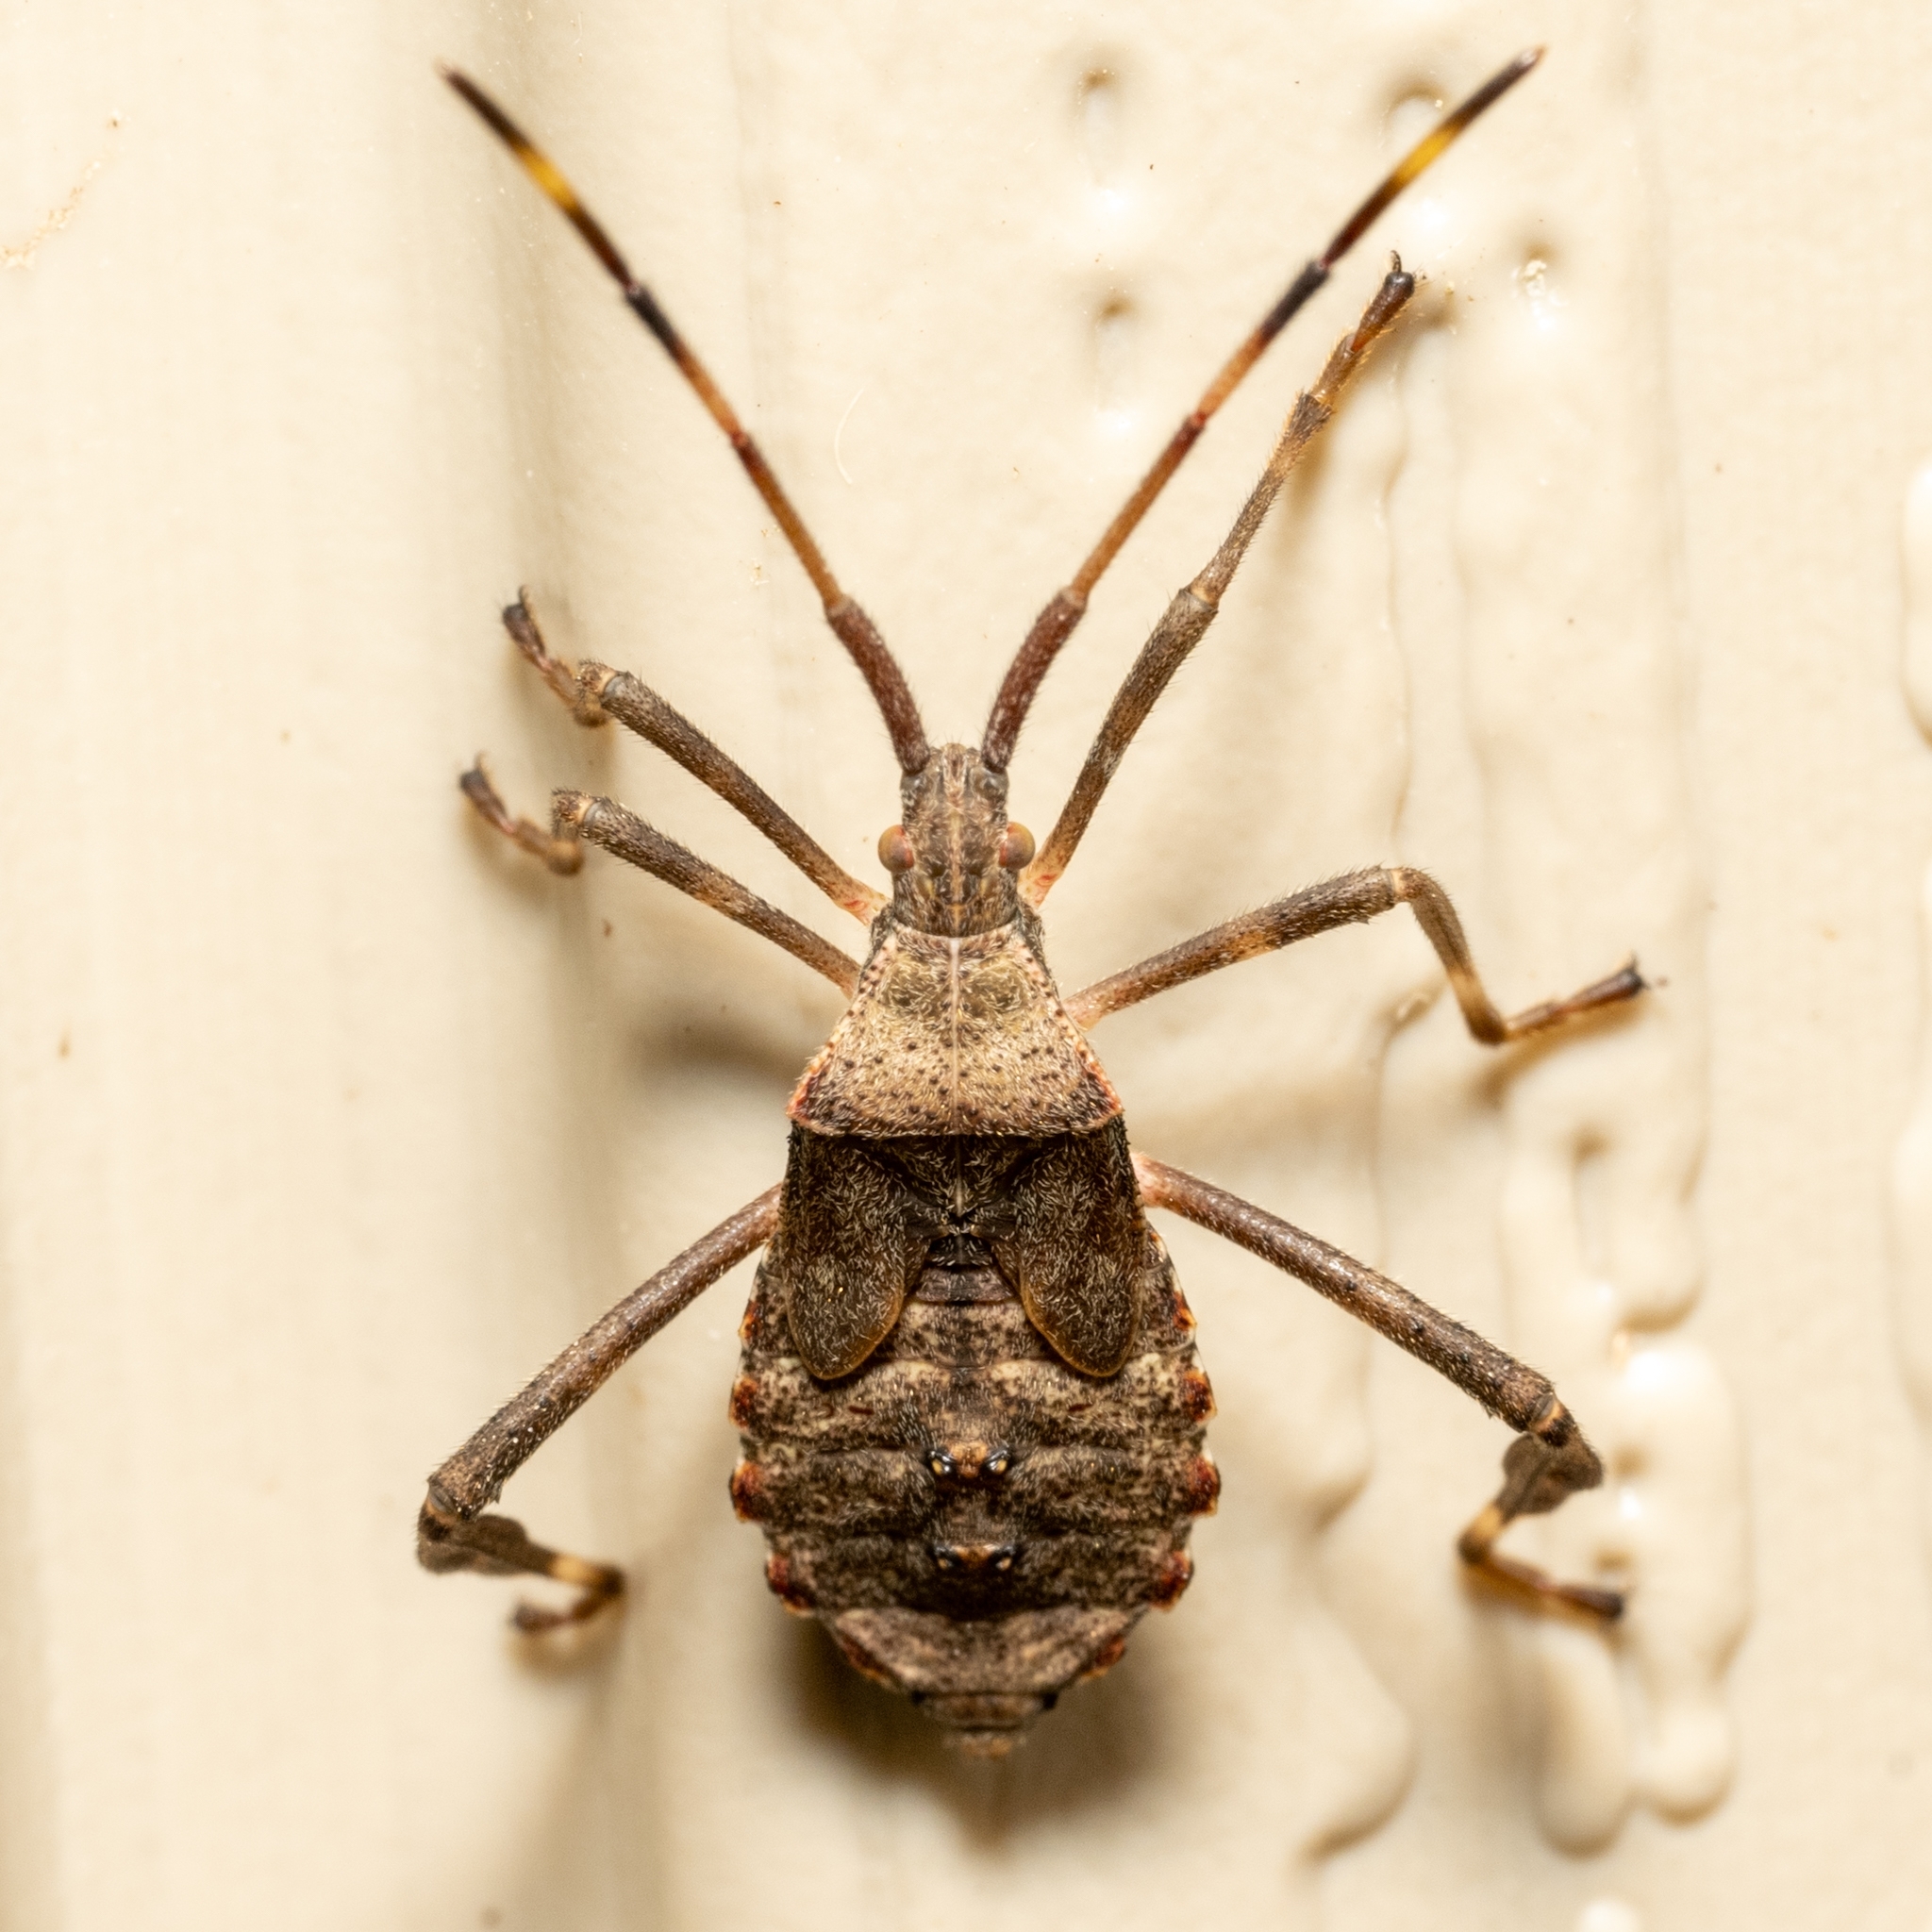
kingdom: Animalia
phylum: Arthropoda
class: Insecta
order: Hemiptera
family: Coreidae
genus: Acanthocephala
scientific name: Acanthocephala terminalis
